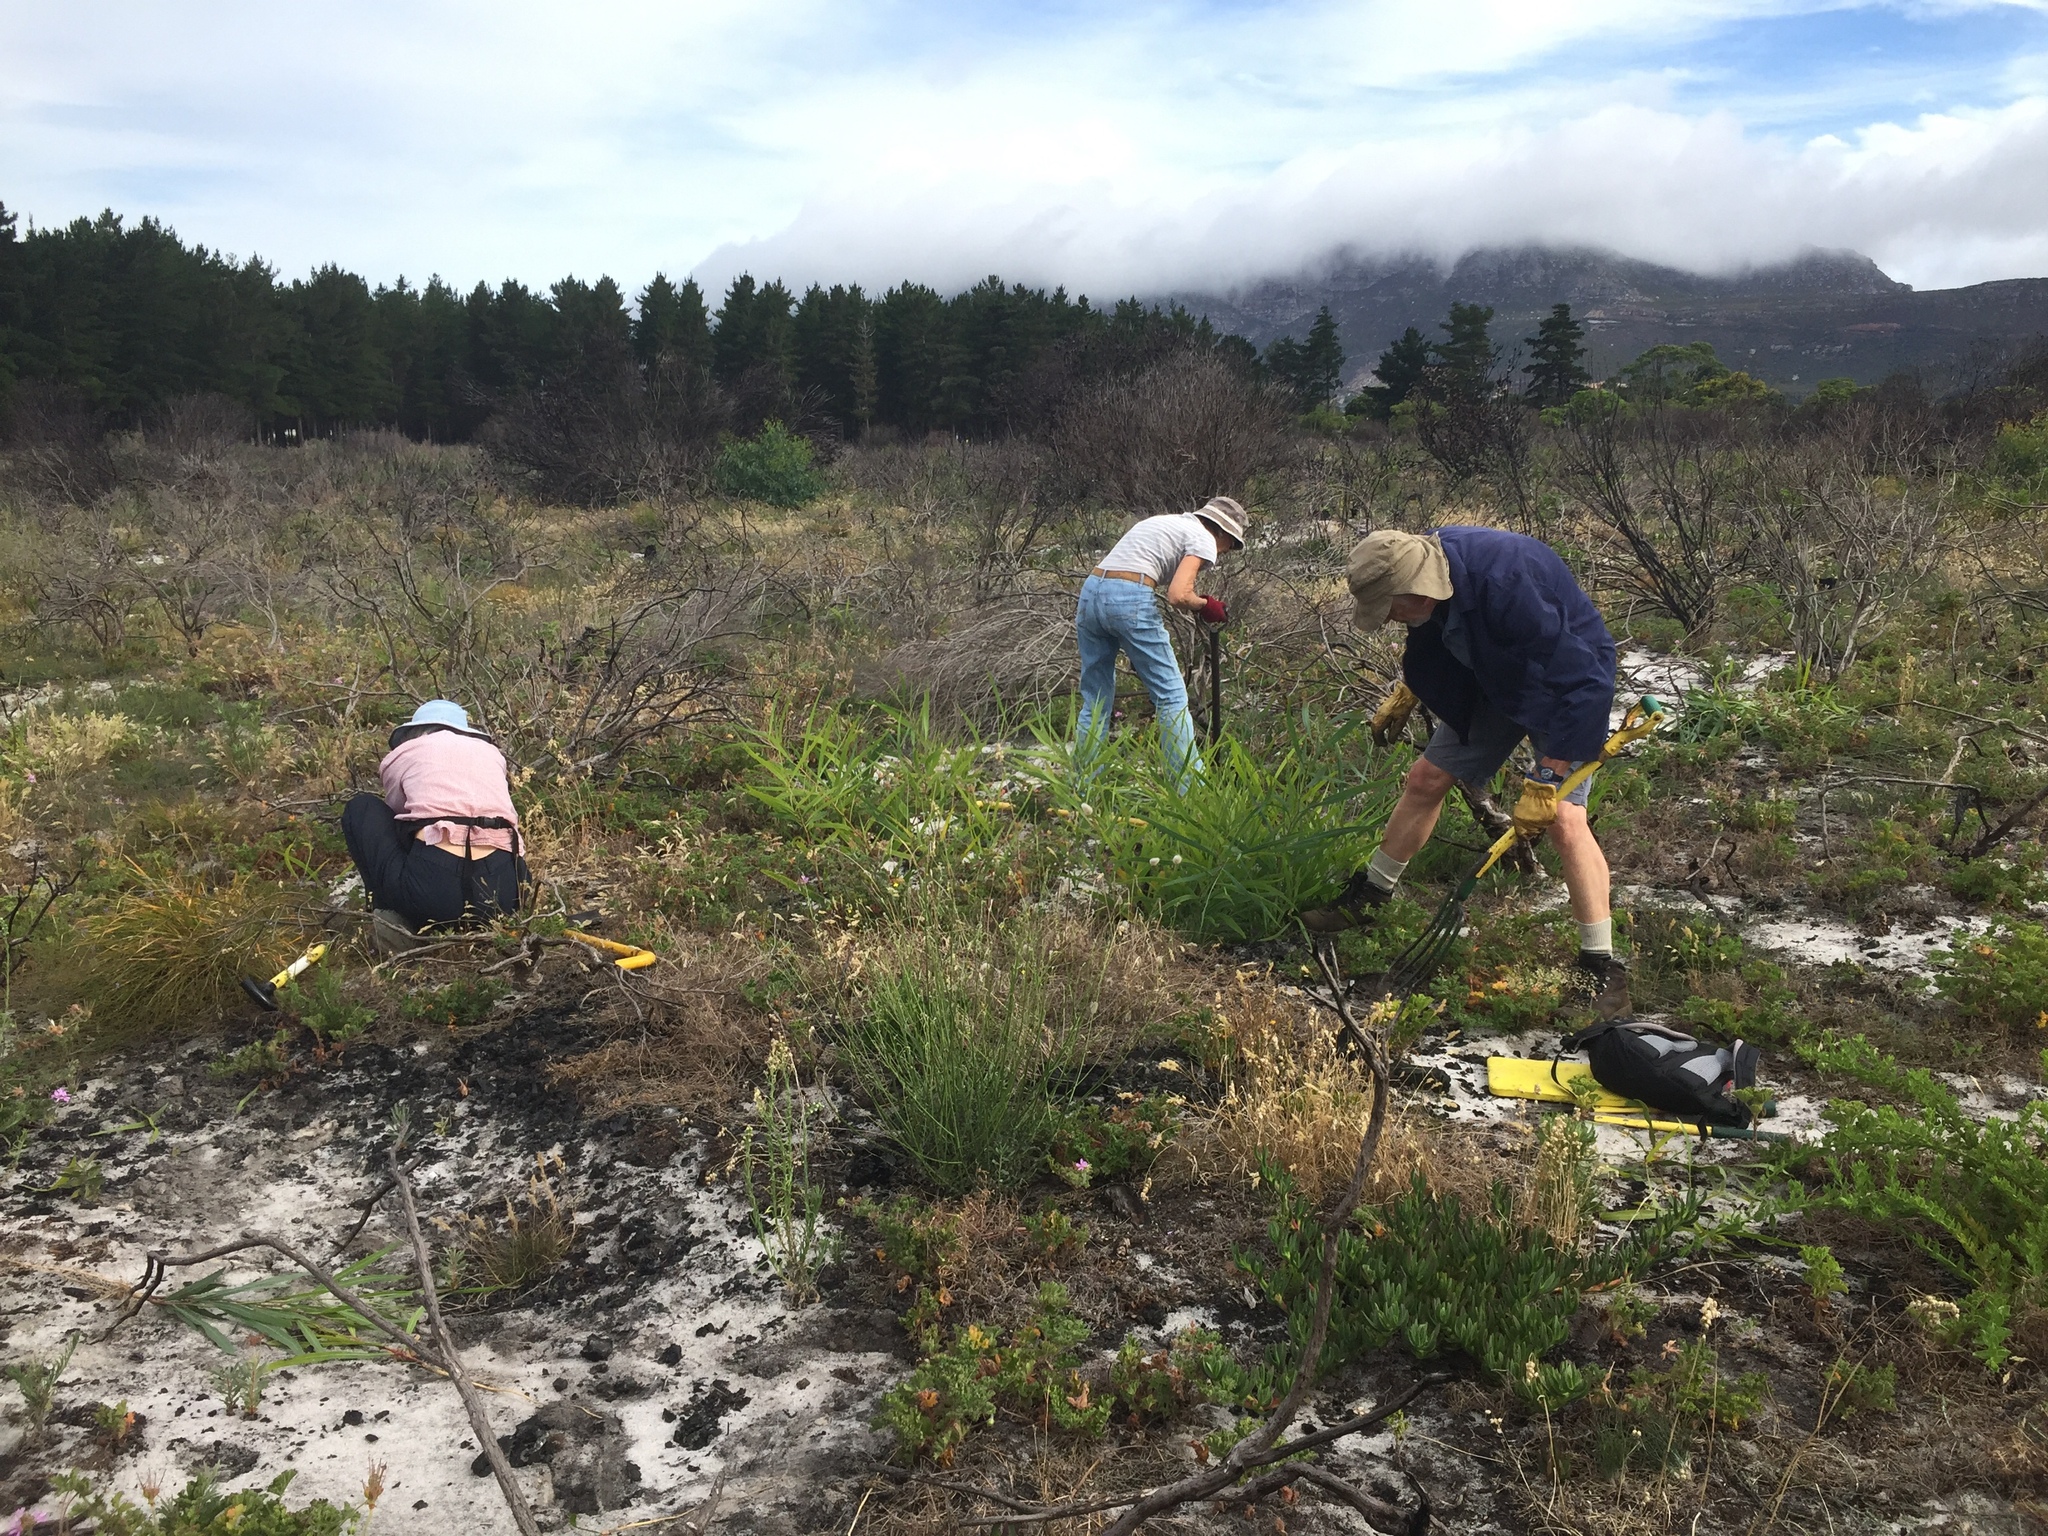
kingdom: Plantae
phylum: Tracheophyta
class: Magnoliopsida
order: Fabales
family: Fabaceae
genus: Acacia
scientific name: Acacia saligna
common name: Orange wattle
